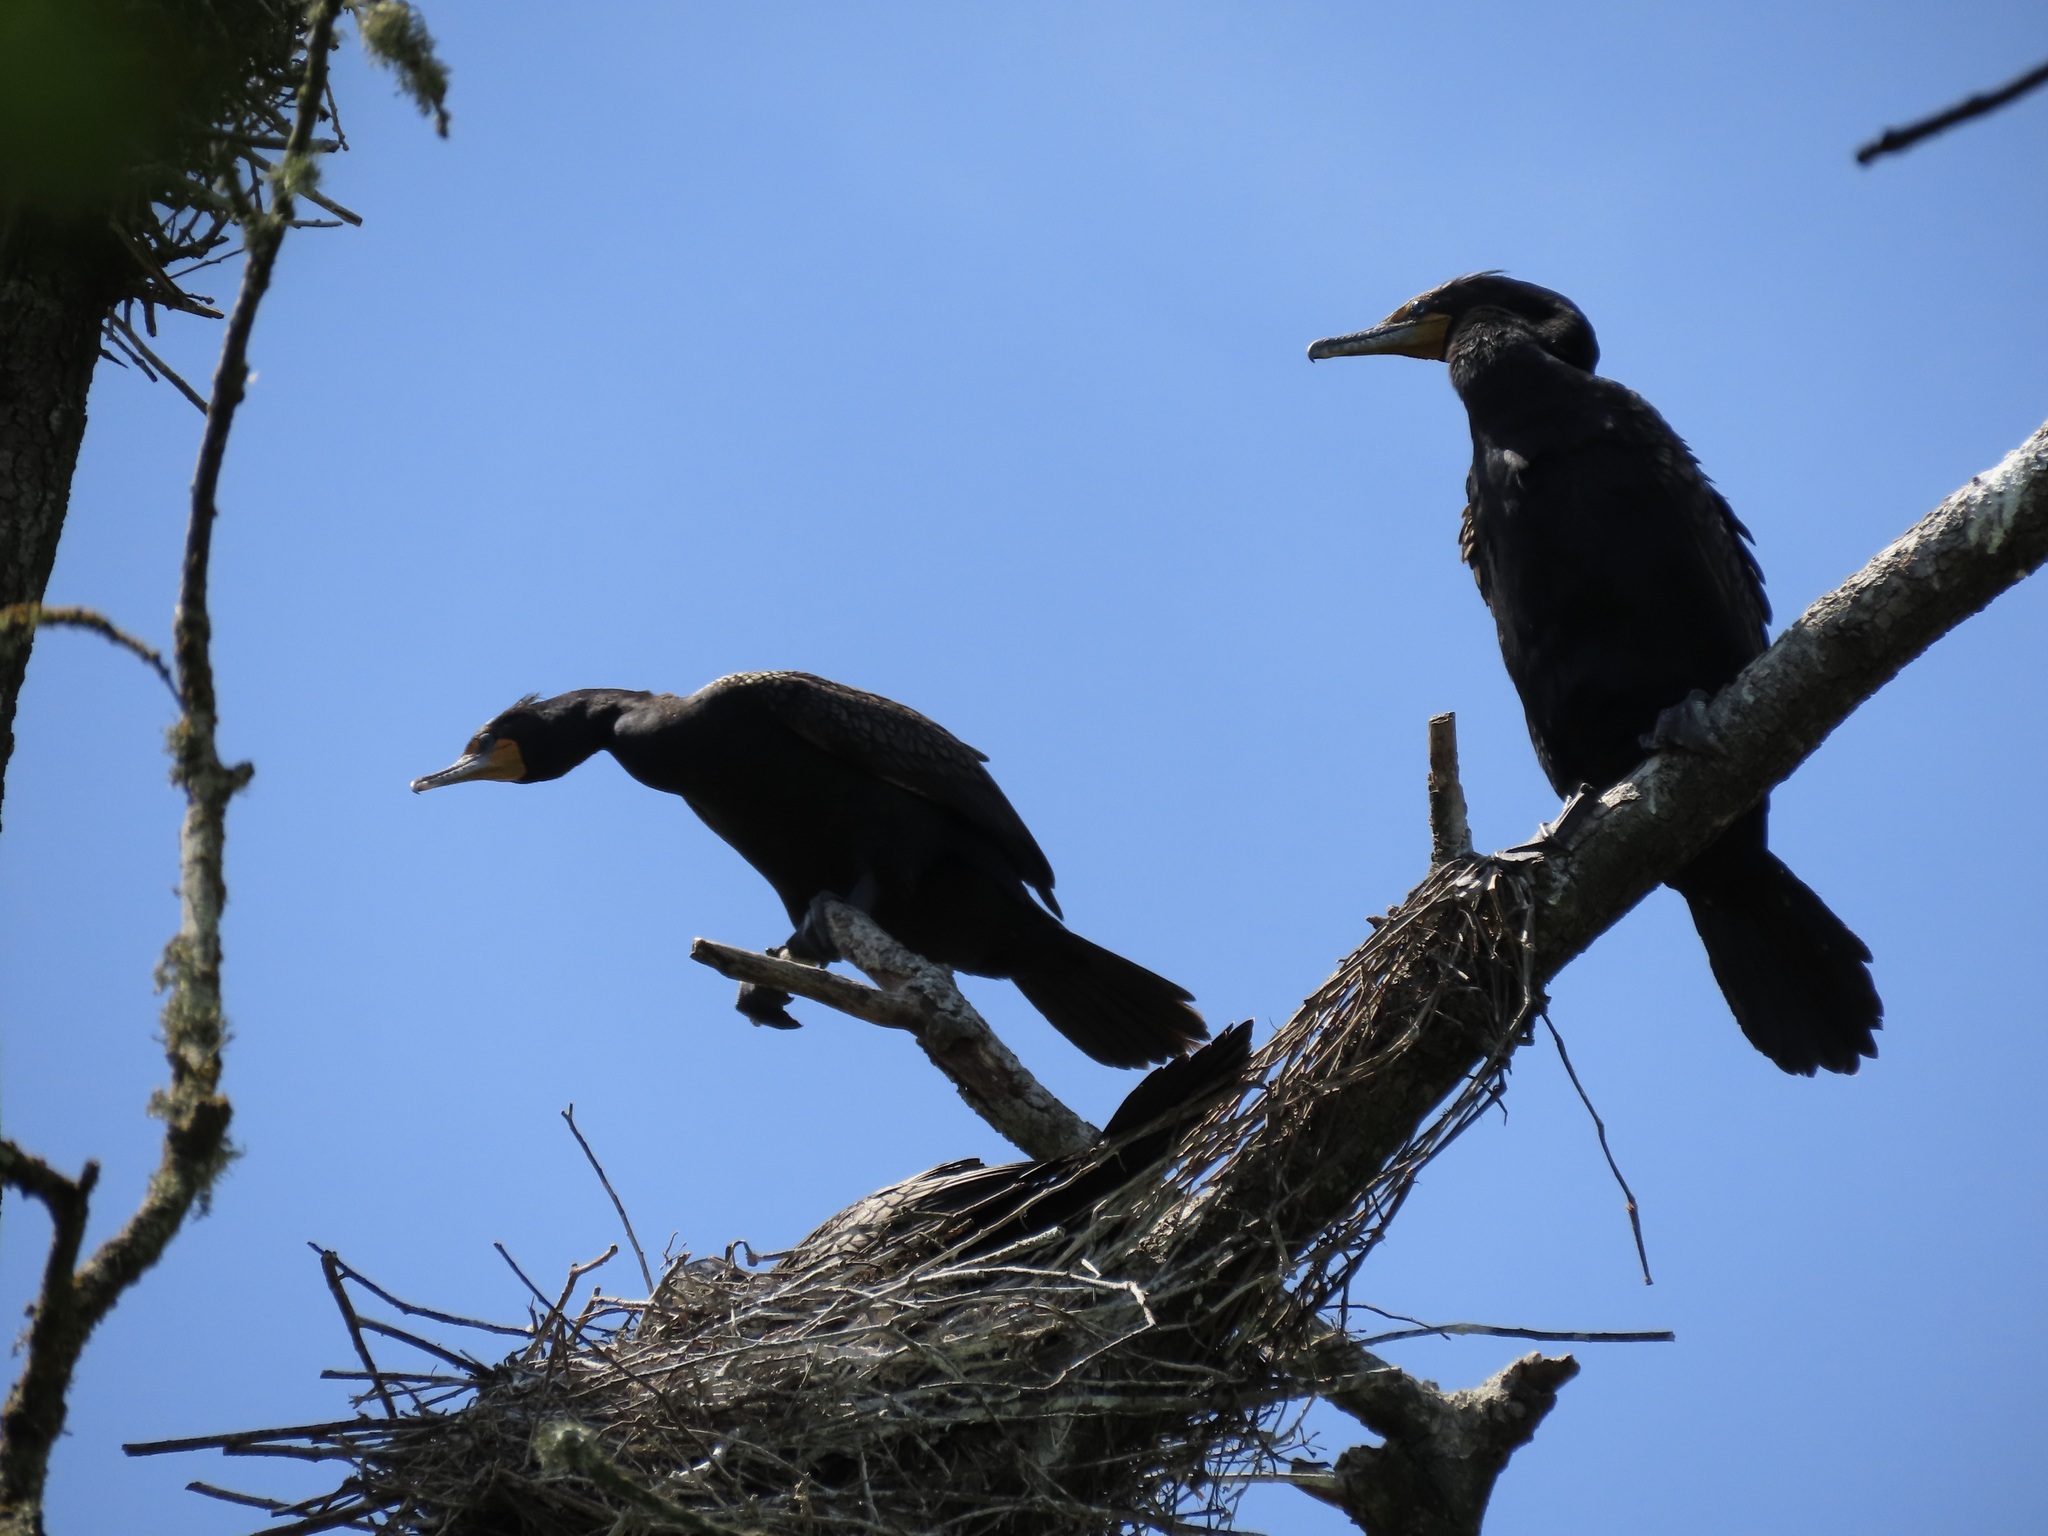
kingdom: Animalia
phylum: Chordata
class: Aves
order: Suliformes
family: Phalacrocoracidae
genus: Phalacrocorax
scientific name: Phalacrocorax auritus
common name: Double-crested cormorant
